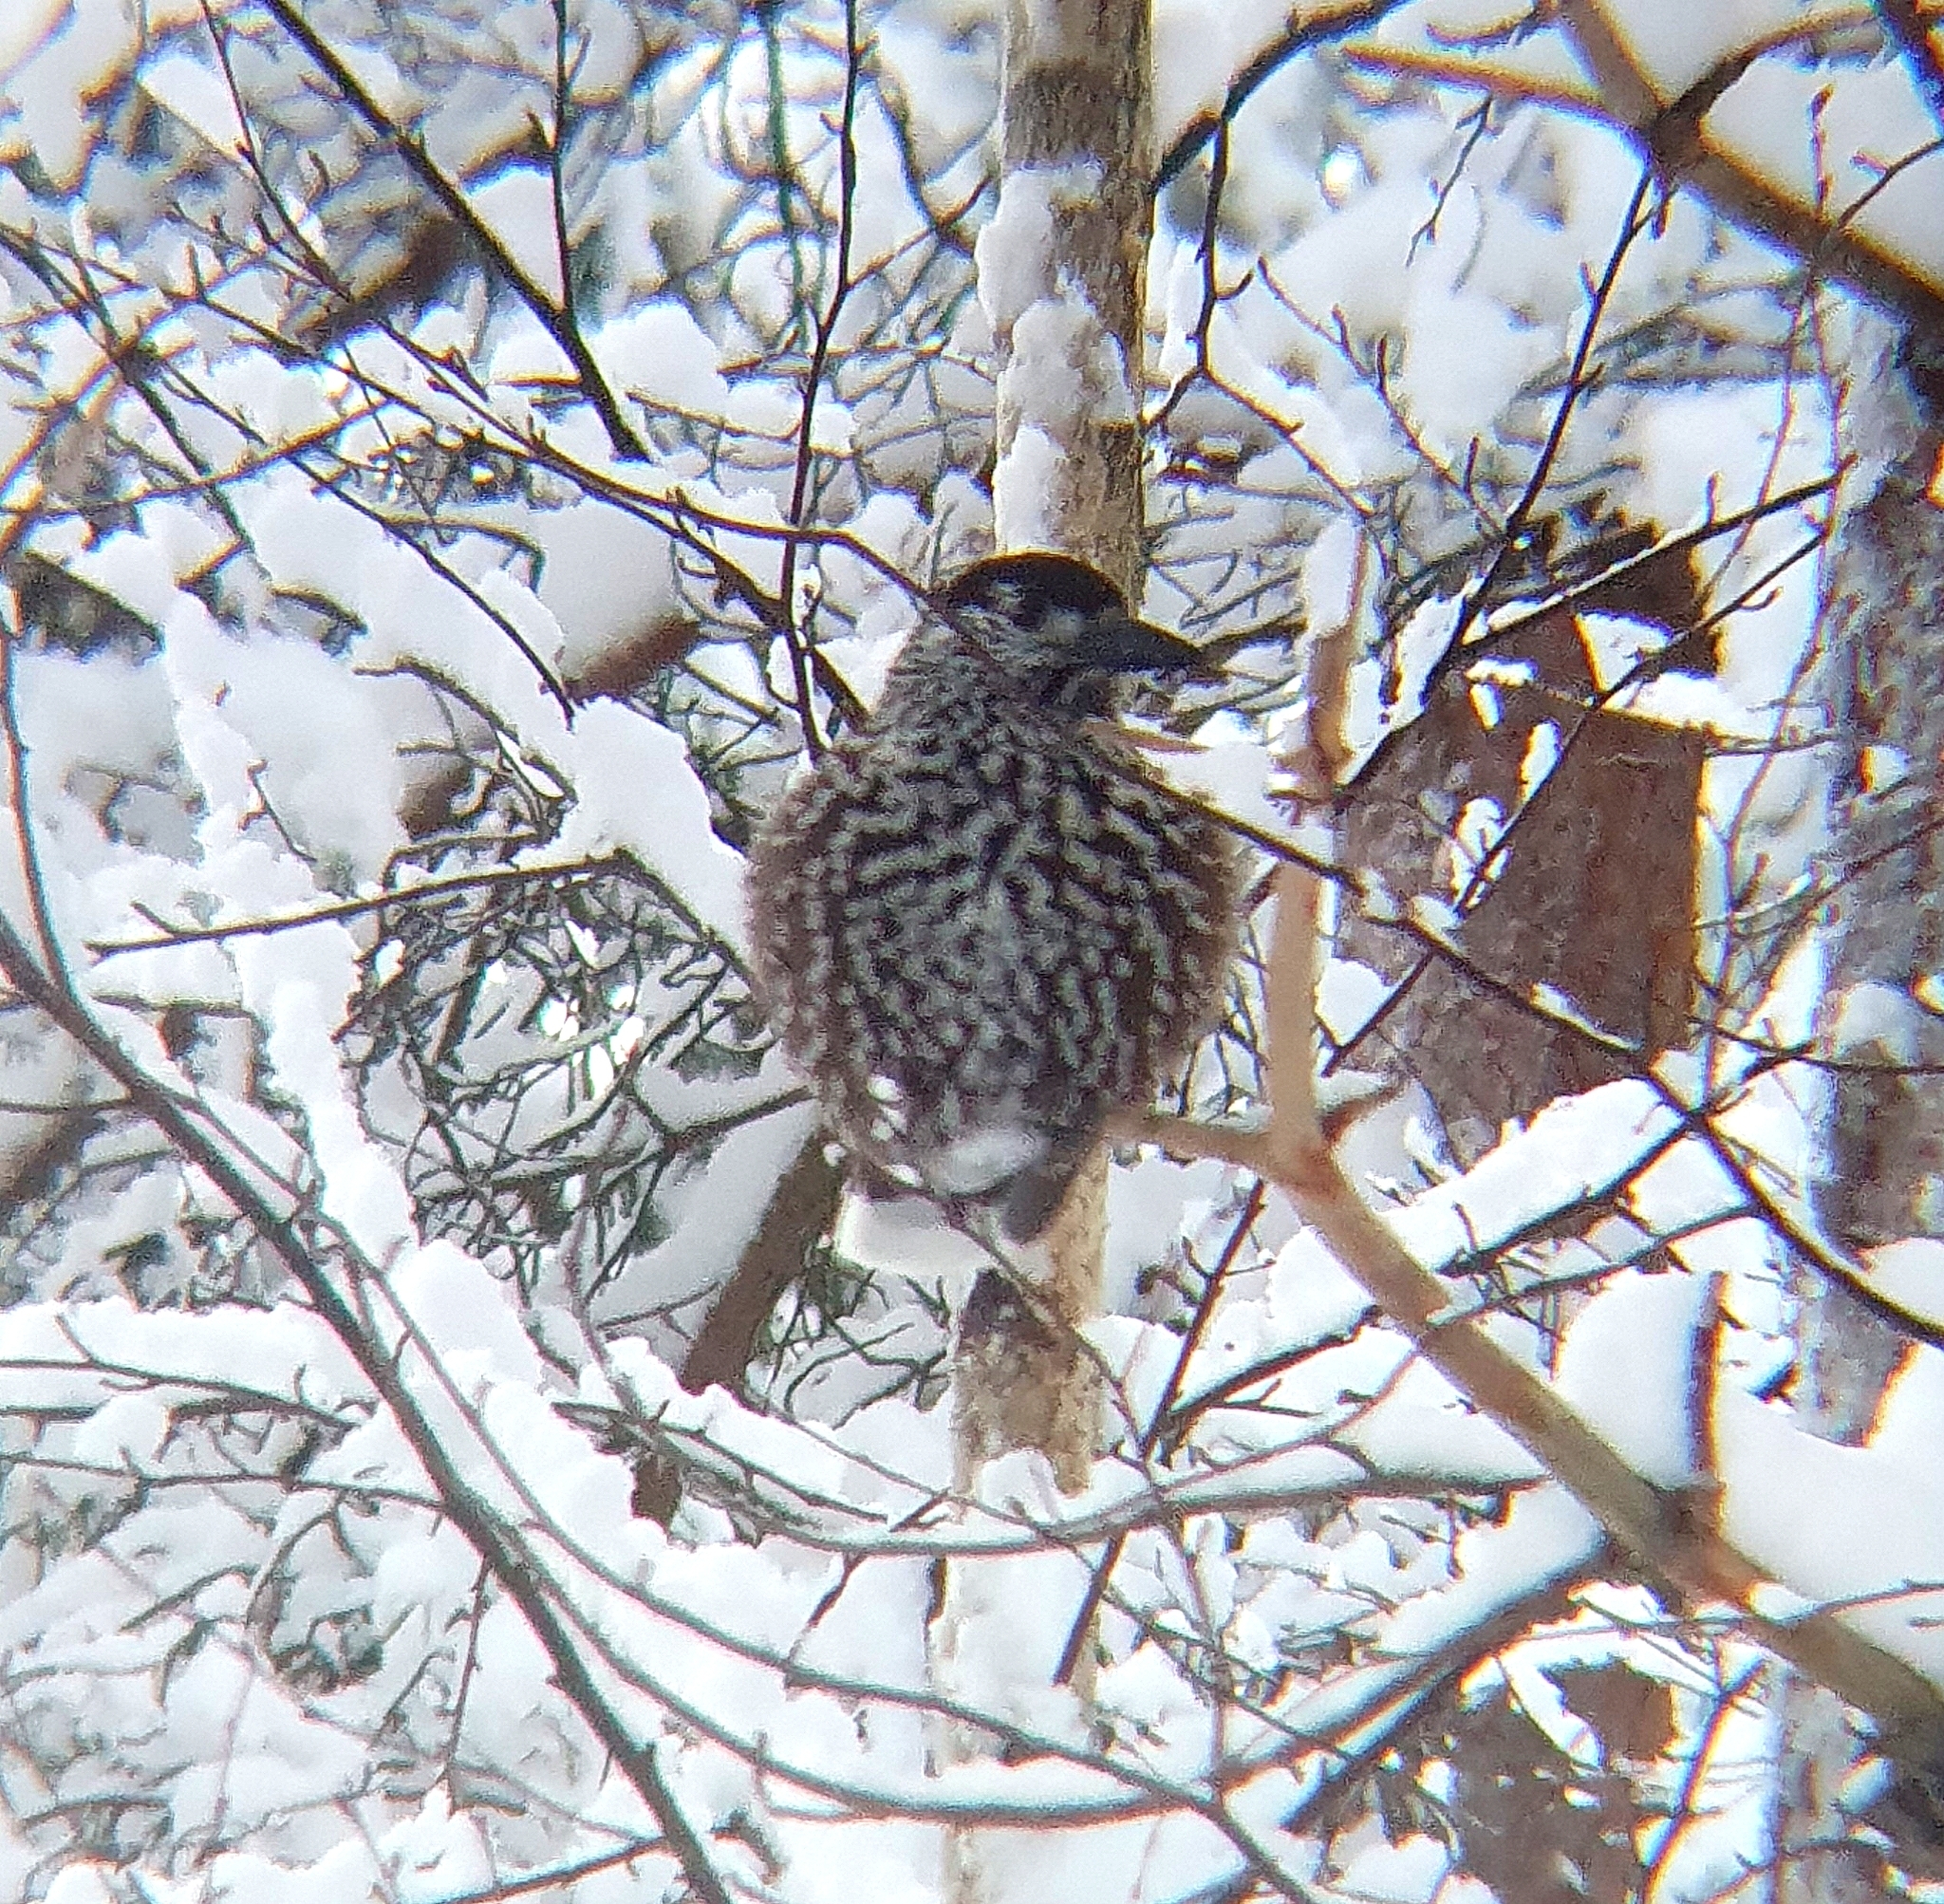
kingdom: Animalia
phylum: Chordata
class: Aves
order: Passeriformes
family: Corvidae
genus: Nucifraga
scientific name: Nucifraga caryocatactes
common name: Spotted nutcracker
